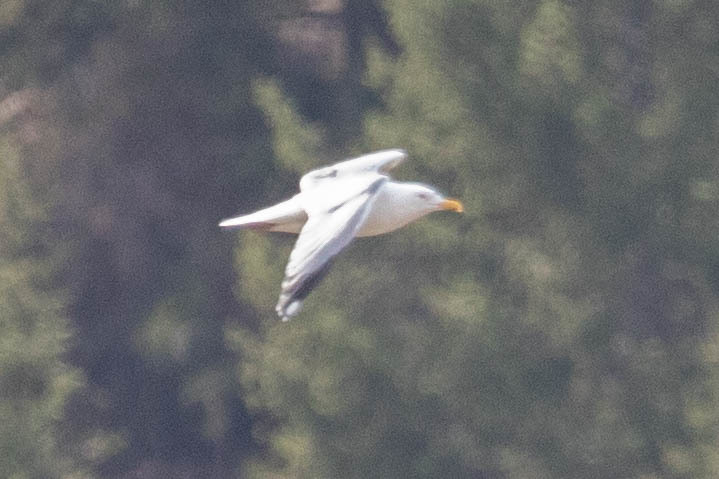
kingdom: Animalia
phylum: Chordata
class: Aves
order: Charadriiformes
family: Laridae
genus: Larus
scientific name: Larus argentatus
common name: Herring gull
